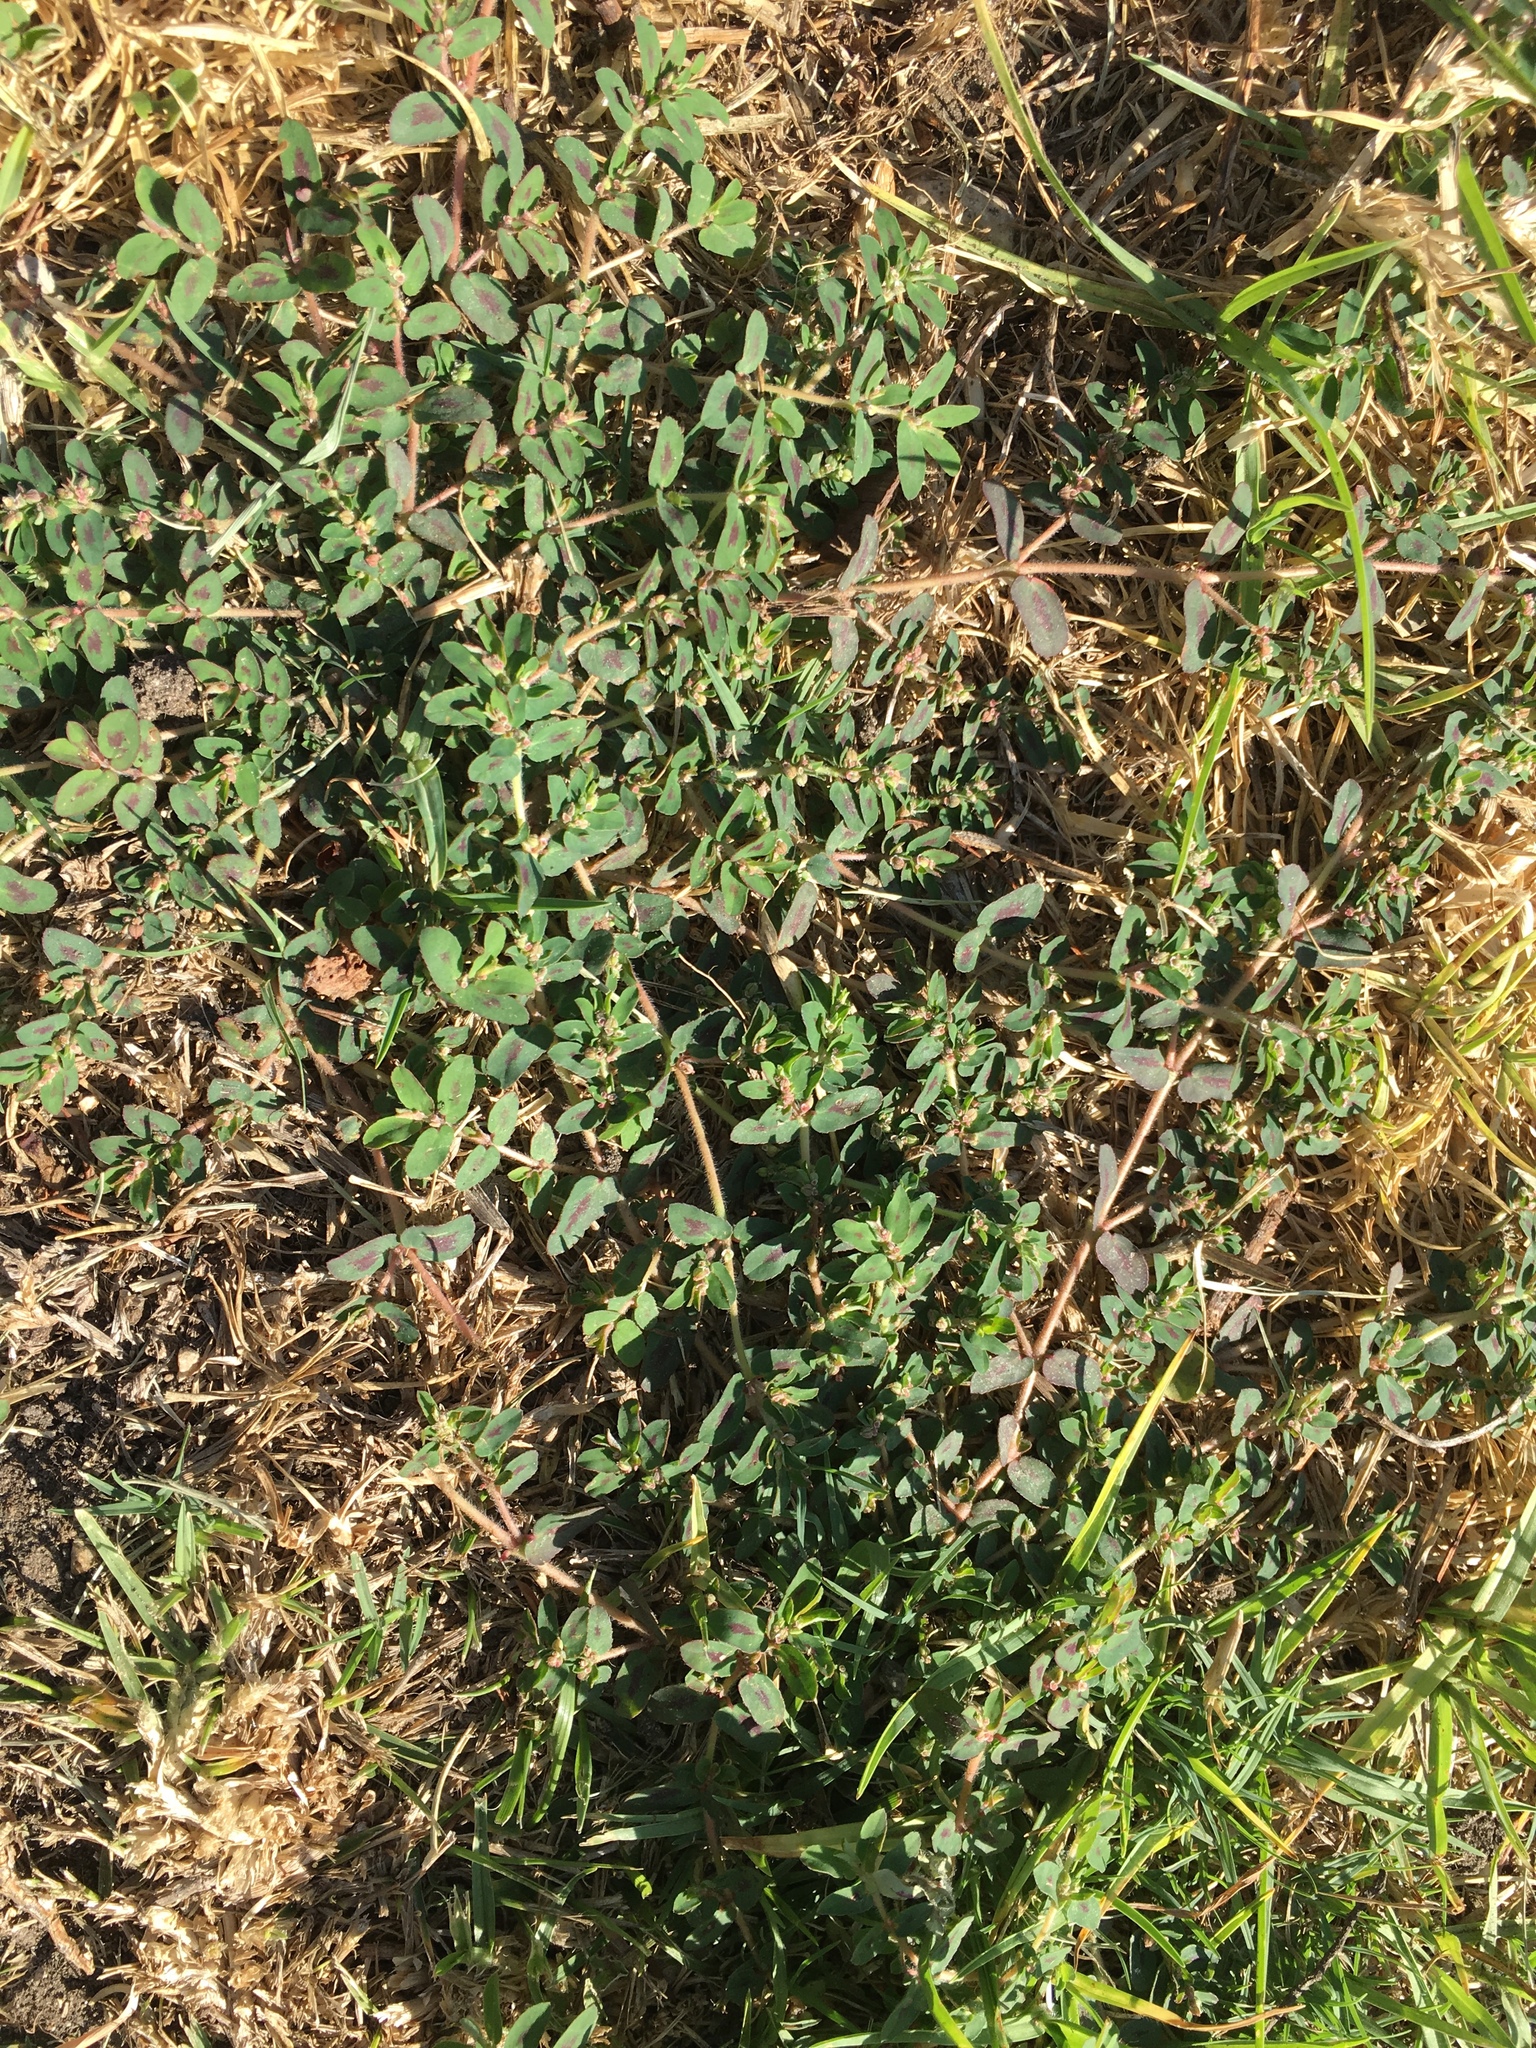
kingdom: Plantae
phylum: Tracheophyta
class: Magnoliopsida
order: Malpighiales
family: Euphorbiaceae
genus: Euphorbia
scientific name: Euphorbia maculata
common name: Spotted spurge
